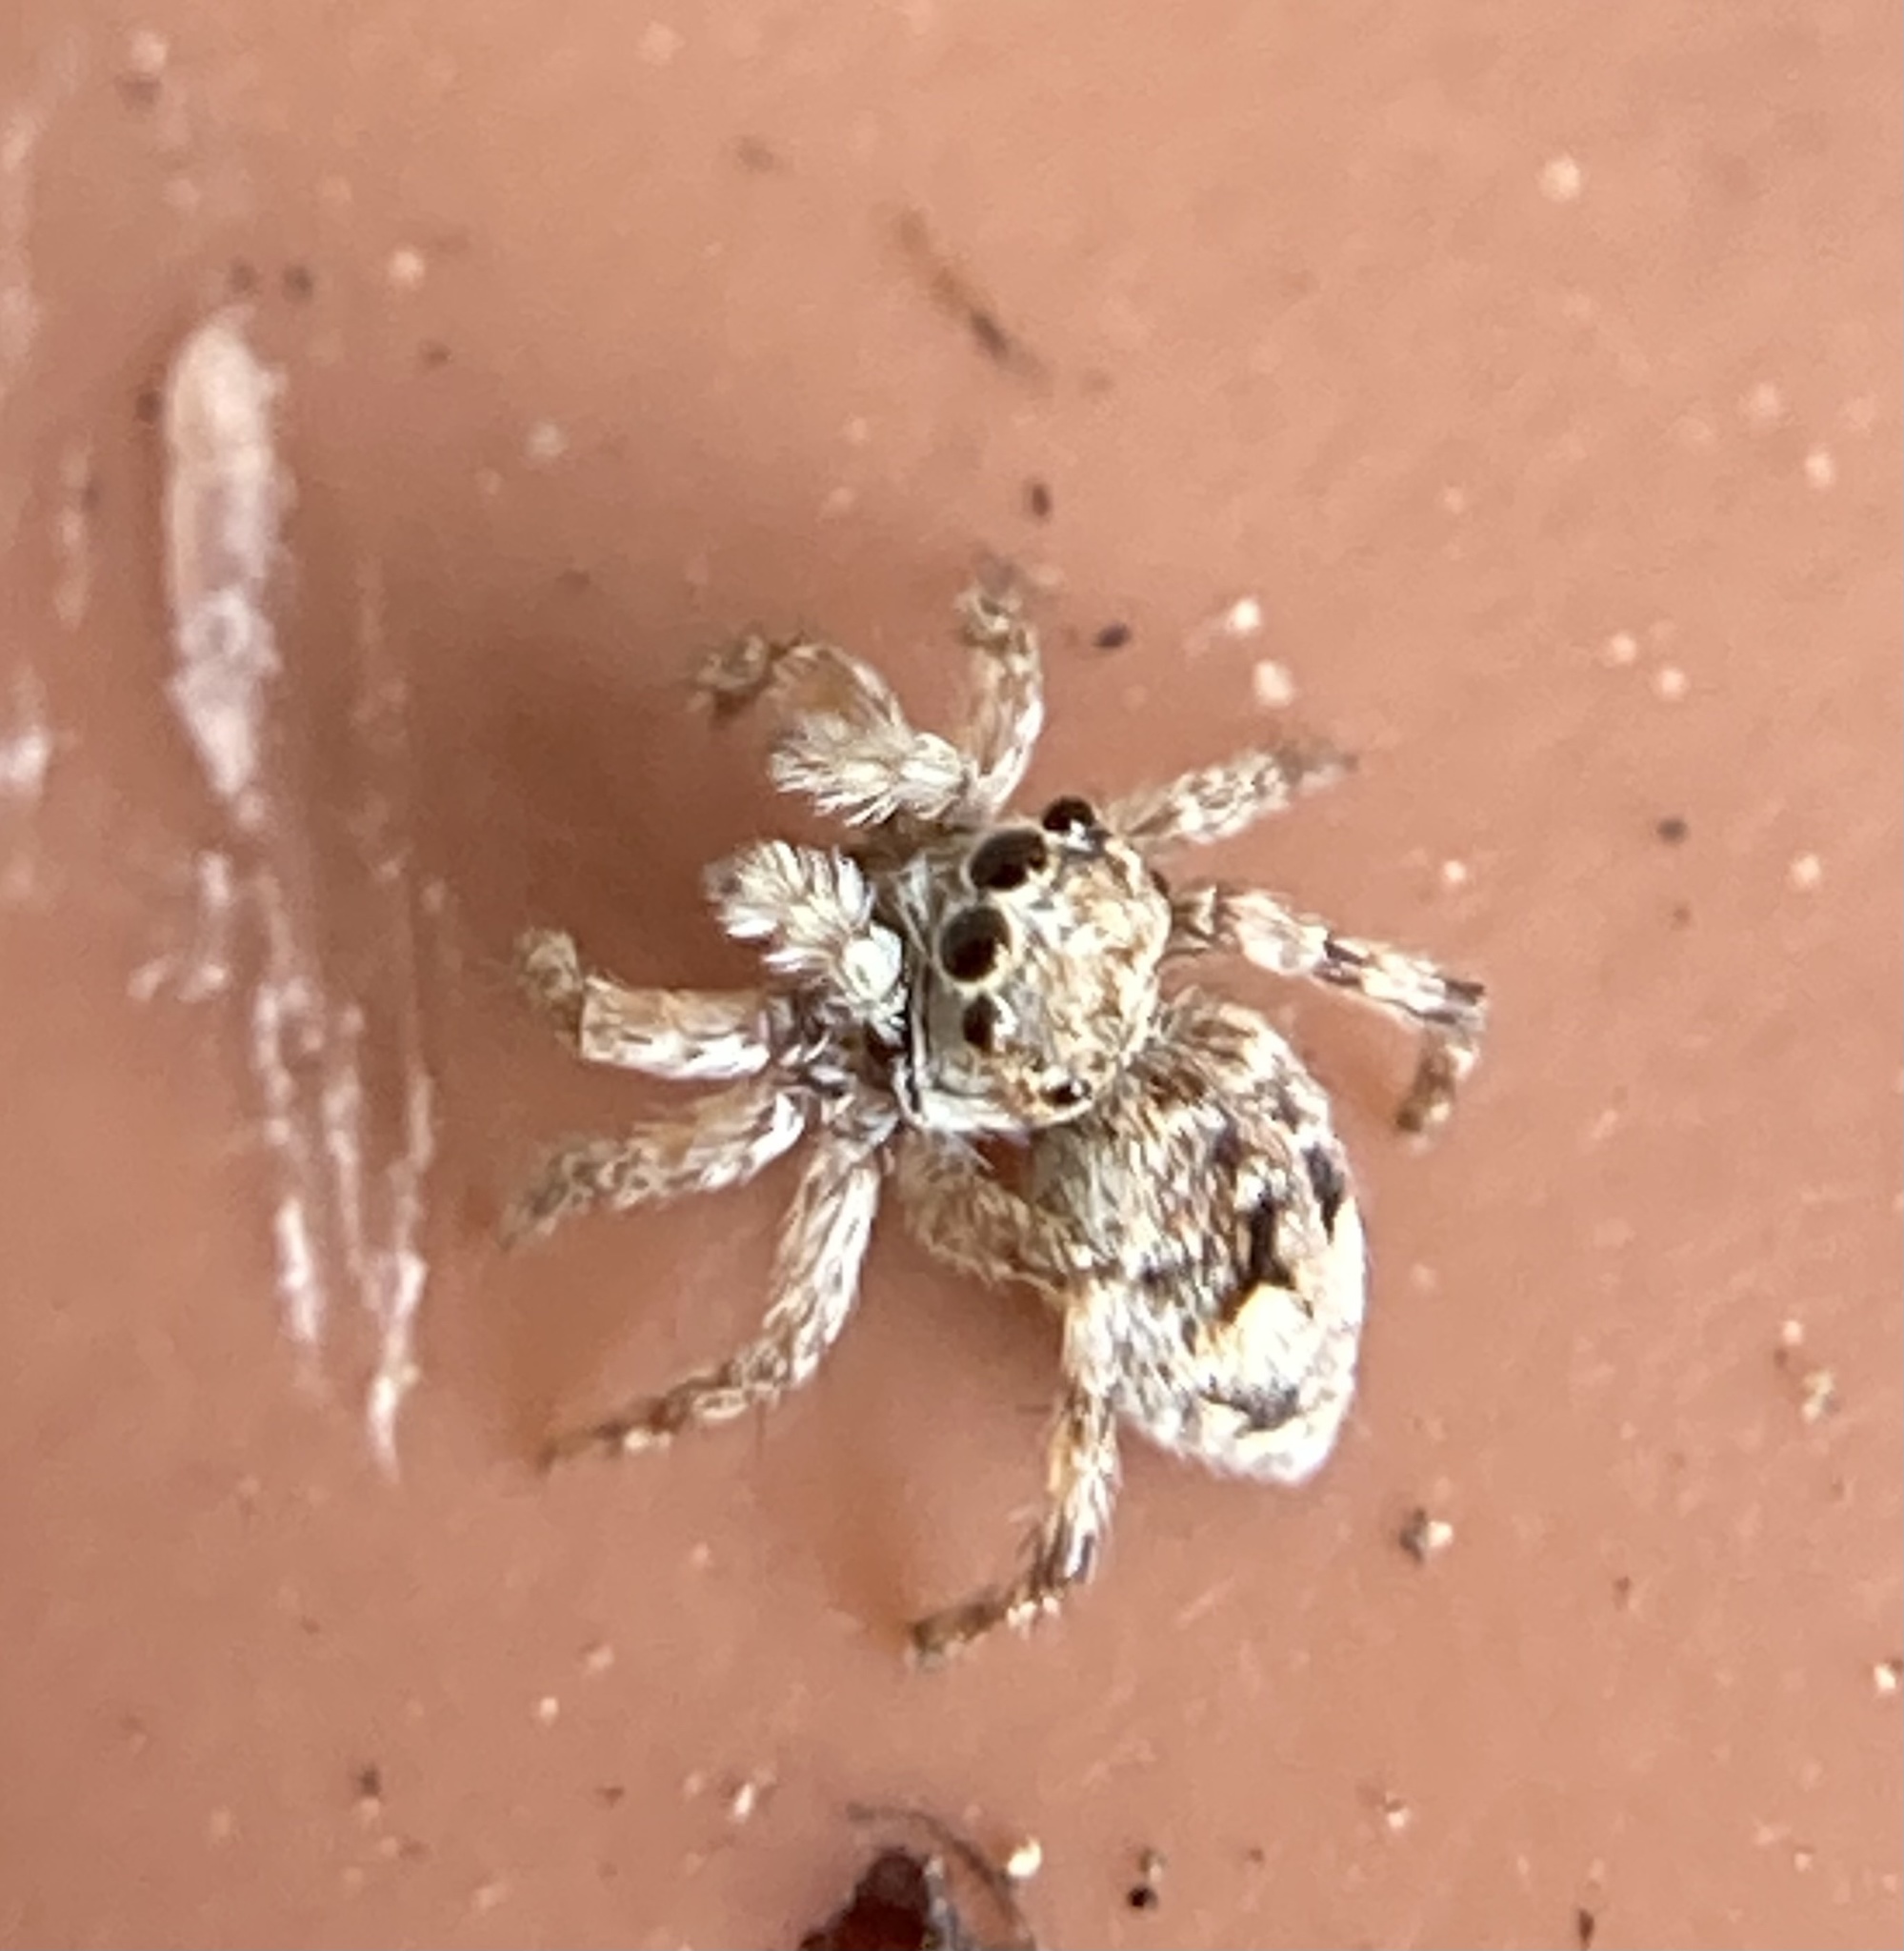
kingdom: Animalia
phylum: Arthropoda
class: Arachnida
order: Araneae
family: Salticidae
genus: Attulus
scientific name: Attulus fasciger
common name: Asiatic wall jumping spider
